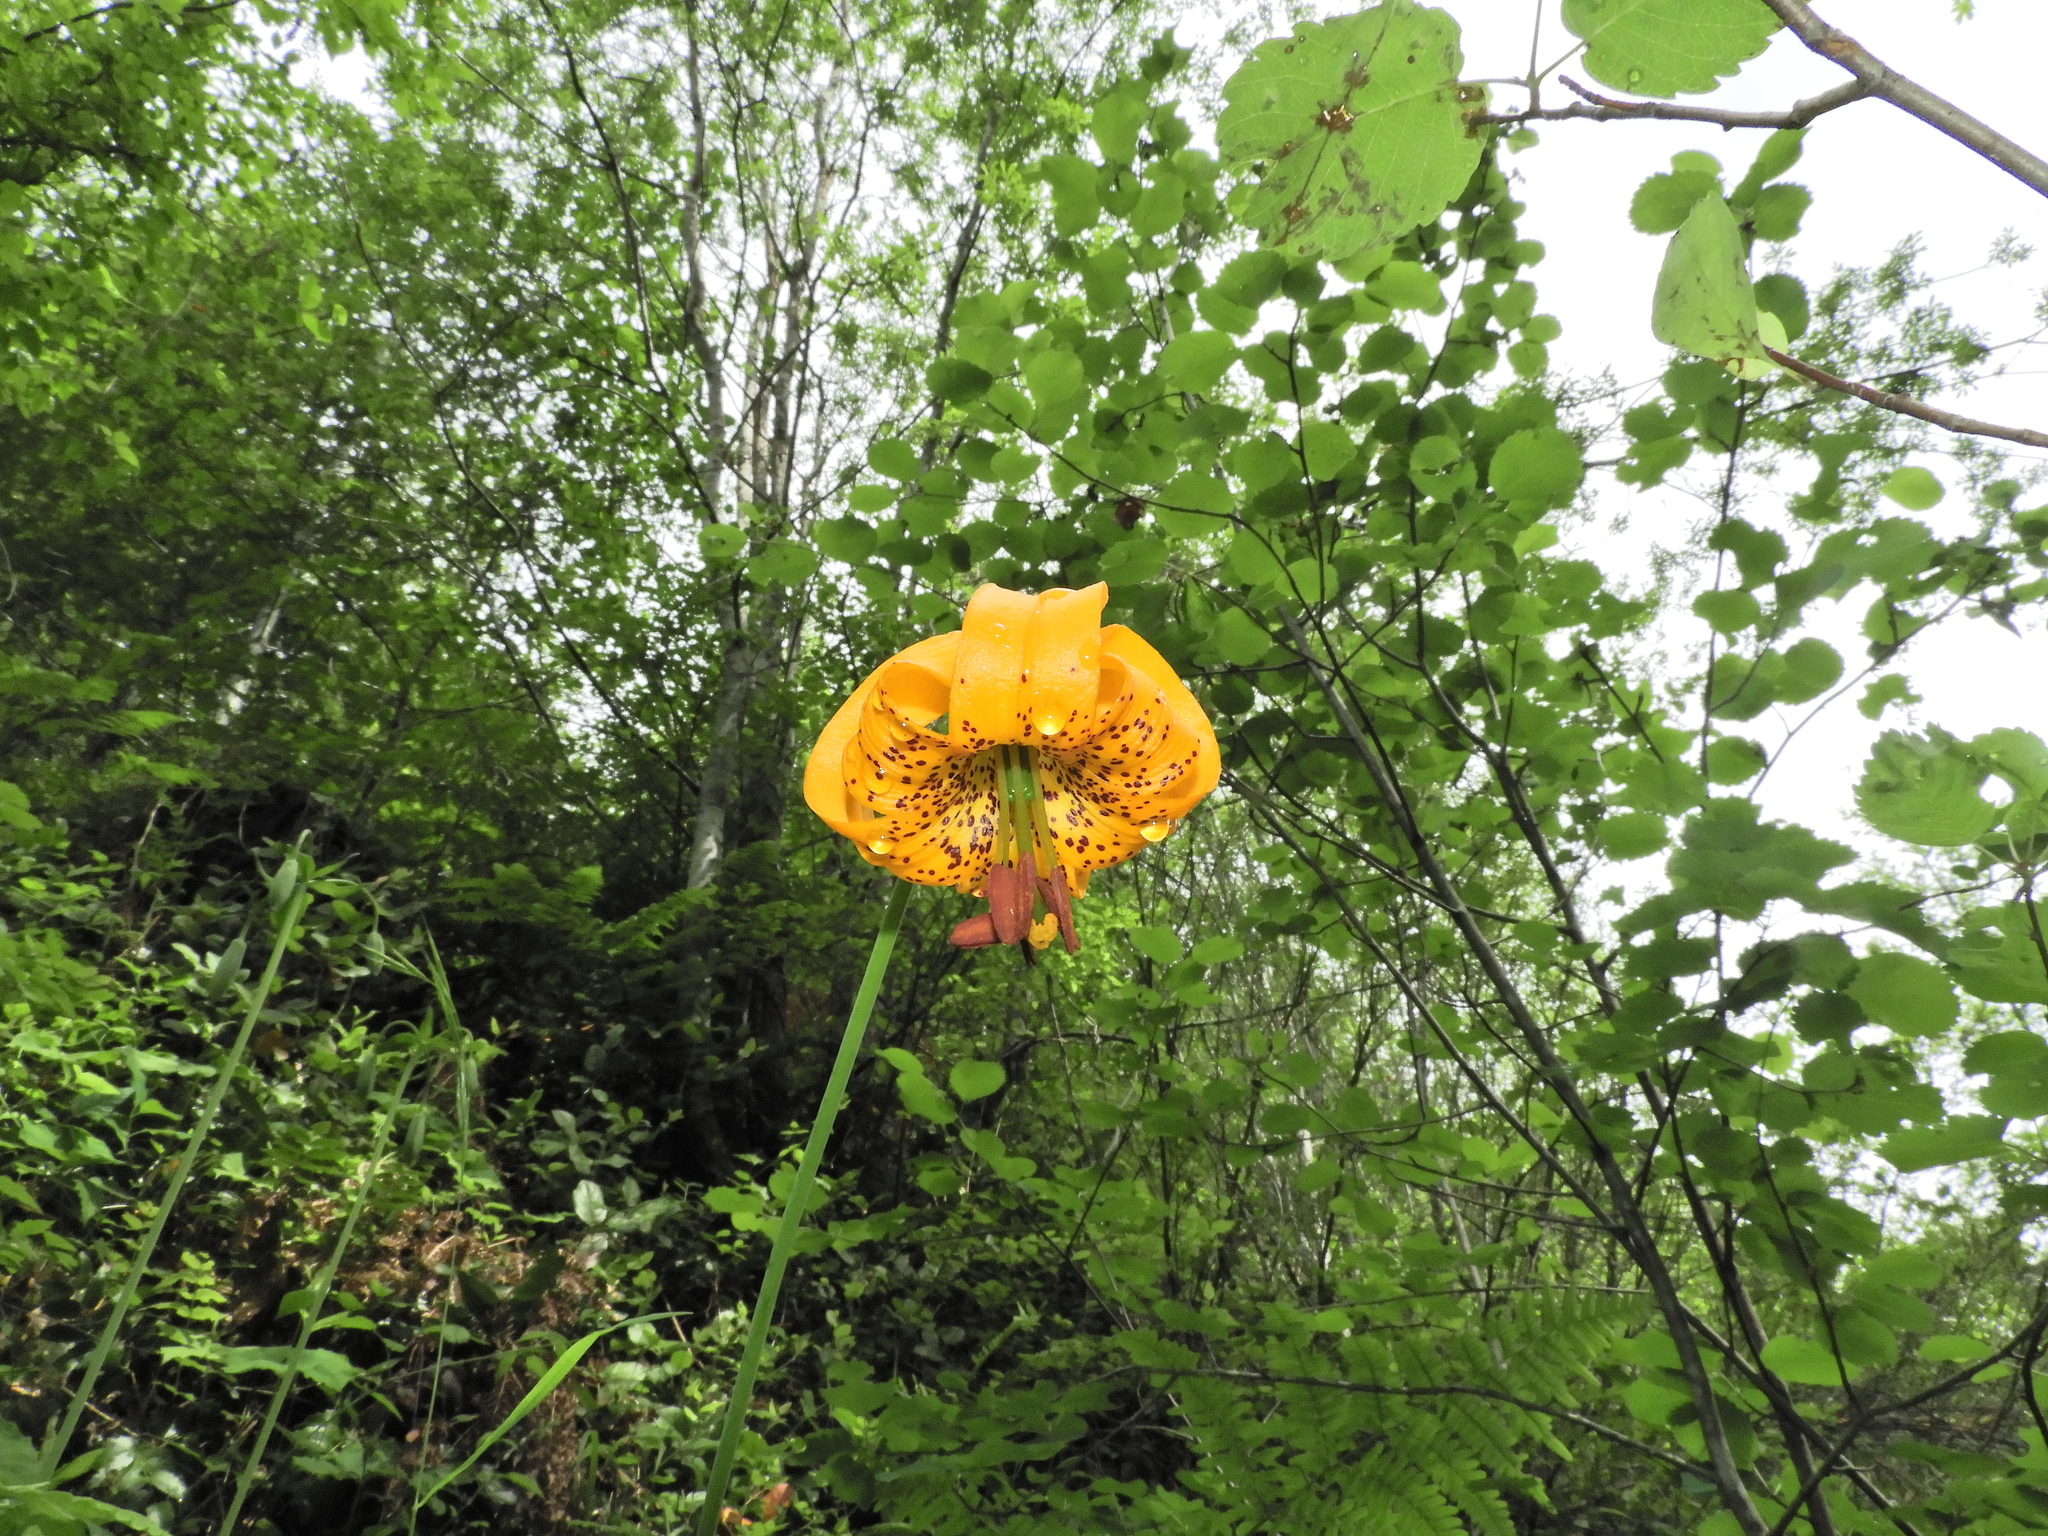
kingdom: Plantae
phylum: Tracheophyta
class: Liliopsida
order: Liliales
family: Liliaceae
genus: Lilium
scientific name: Lilium columbianum
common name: Columbia lily
